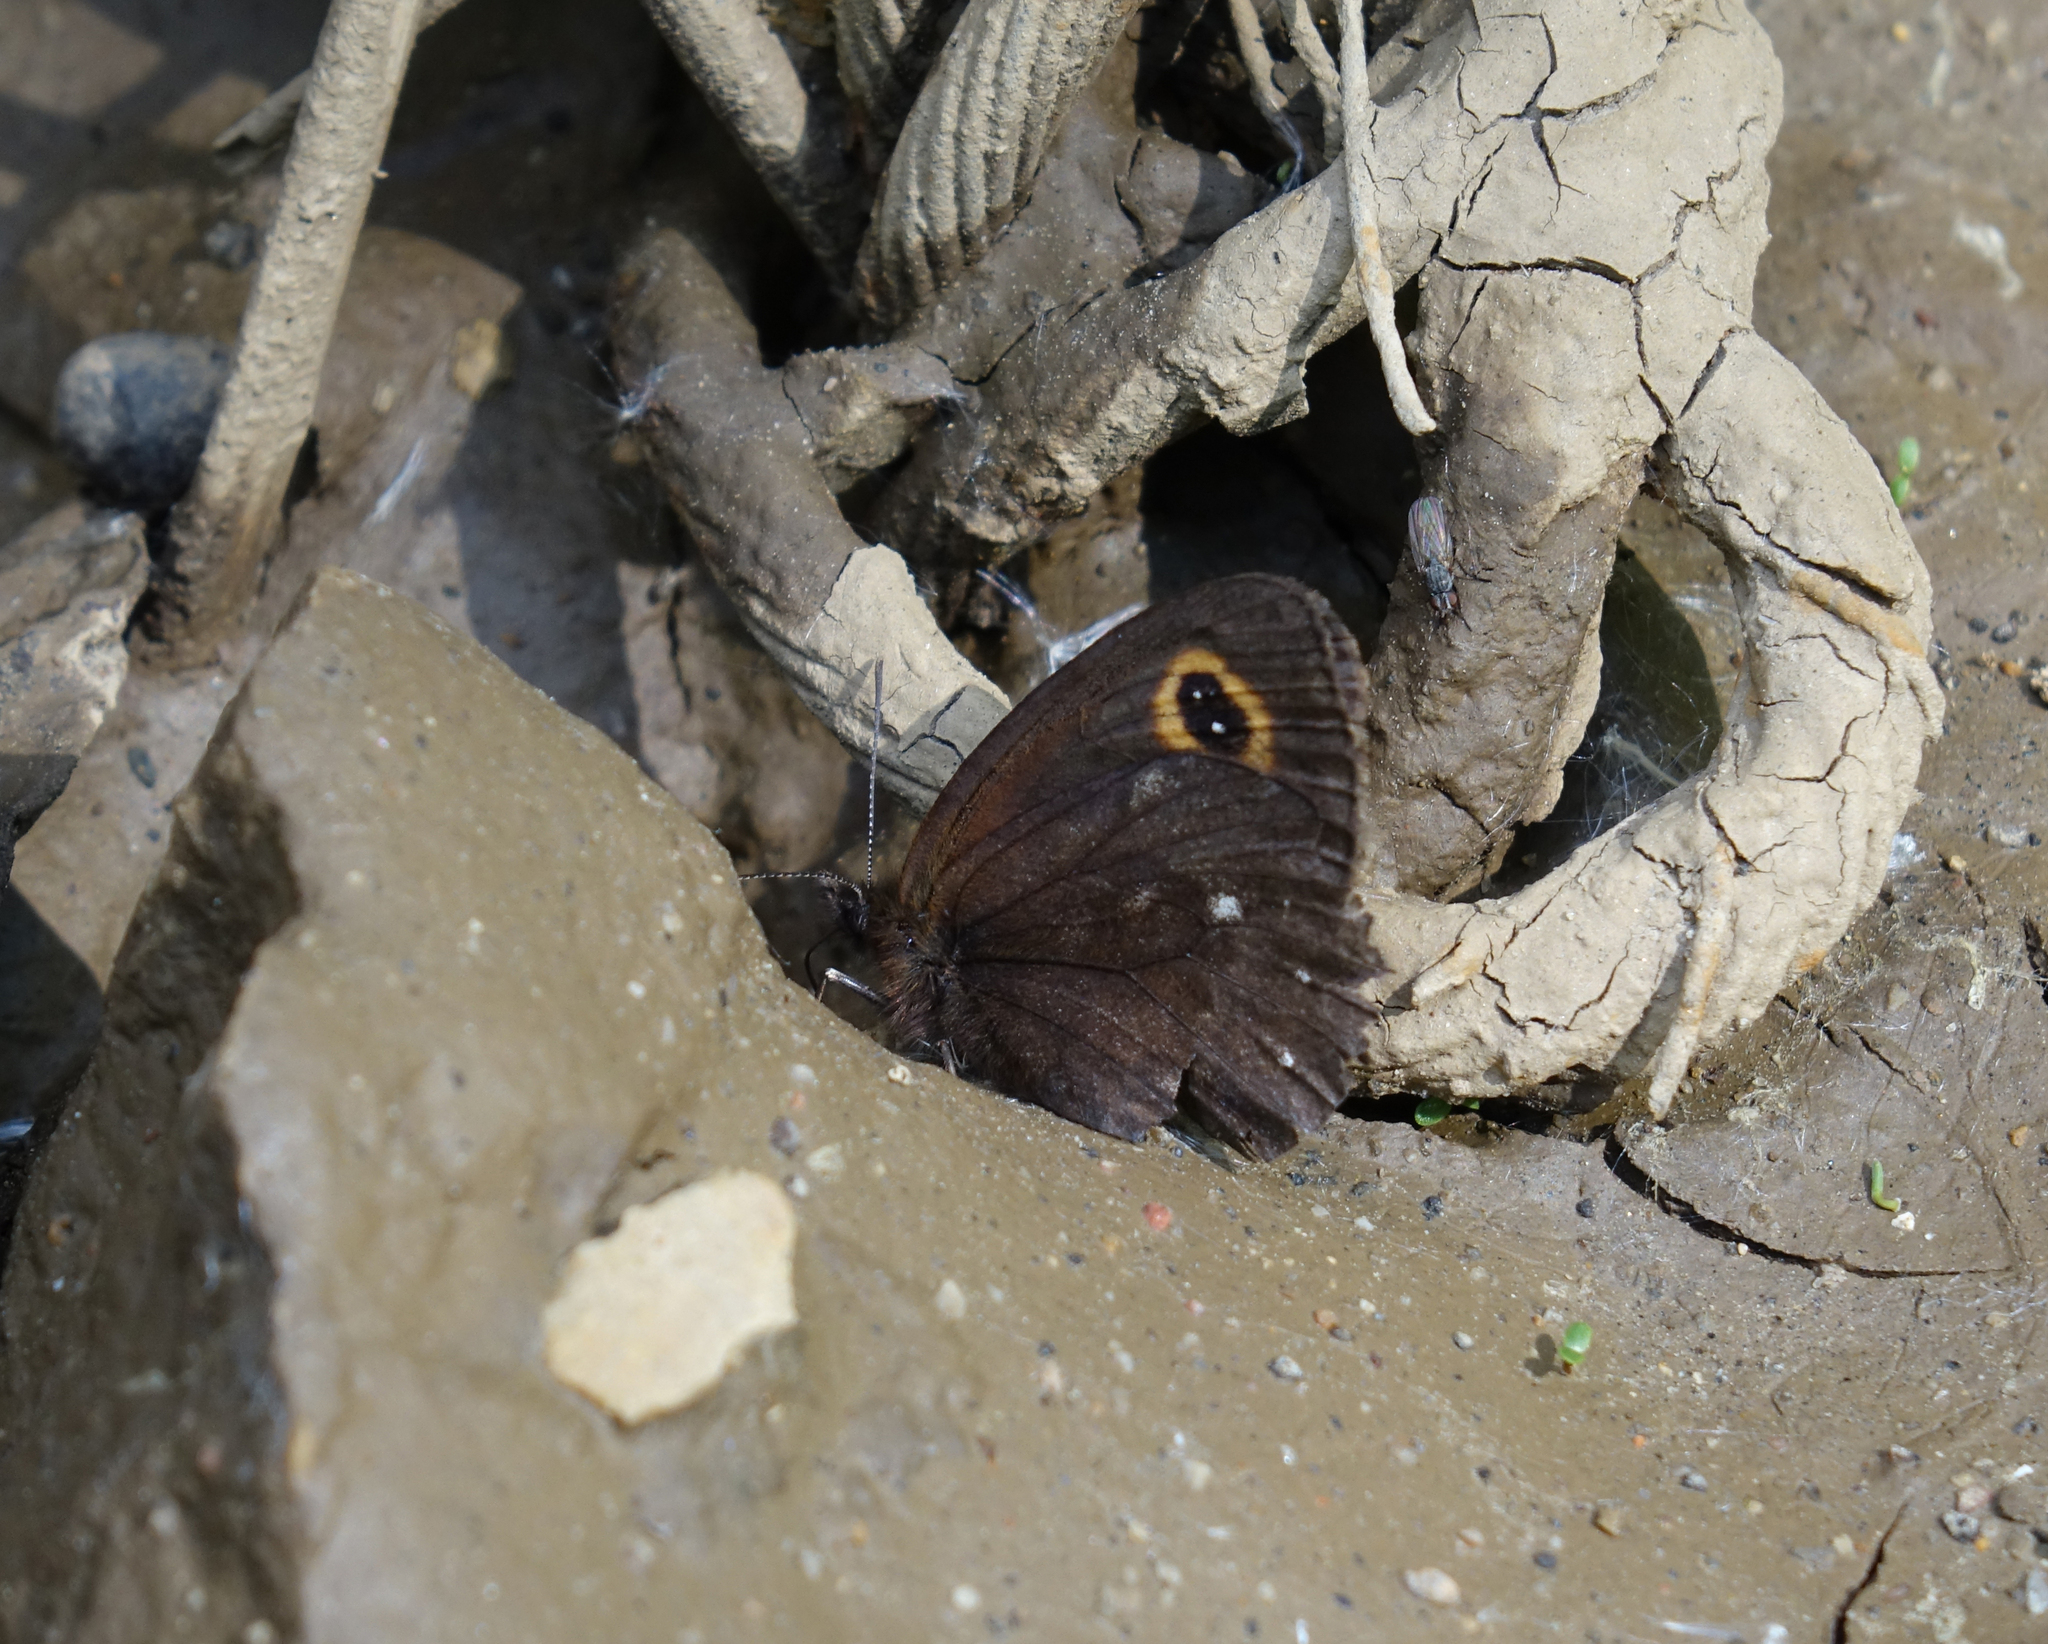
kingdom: Animalia
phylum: Arthropoda
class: Insecta
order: Lepidoptera
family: Nymphalidae
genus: Erebia
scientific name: Erebia edda
